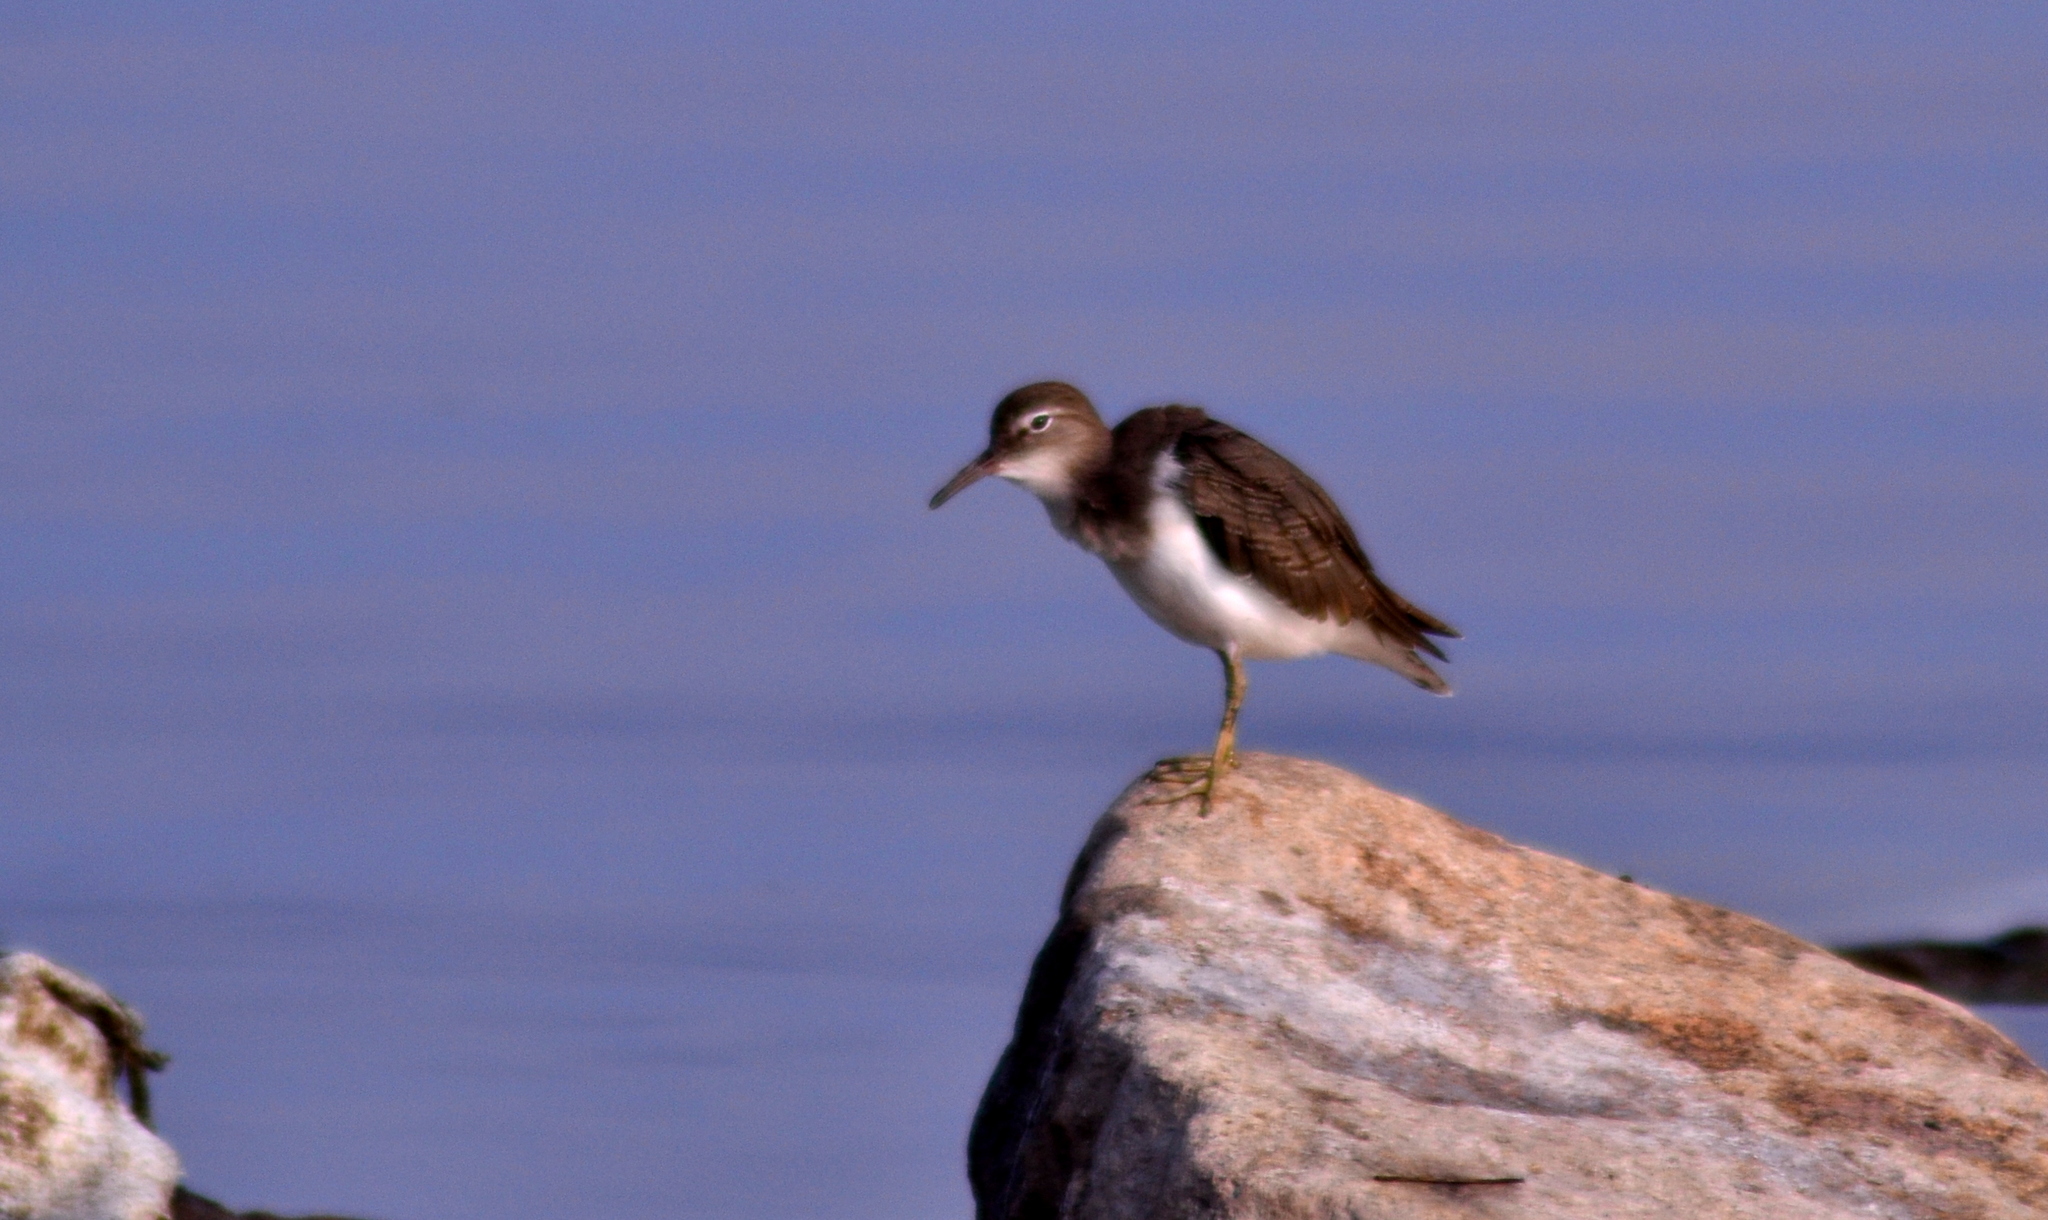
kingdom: Animalia
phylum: Chordata
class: Aves
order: Charadriiformes
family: Scolopacidae
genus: Actitis
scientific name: Actitis macularius
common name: Spotted sandpiper
